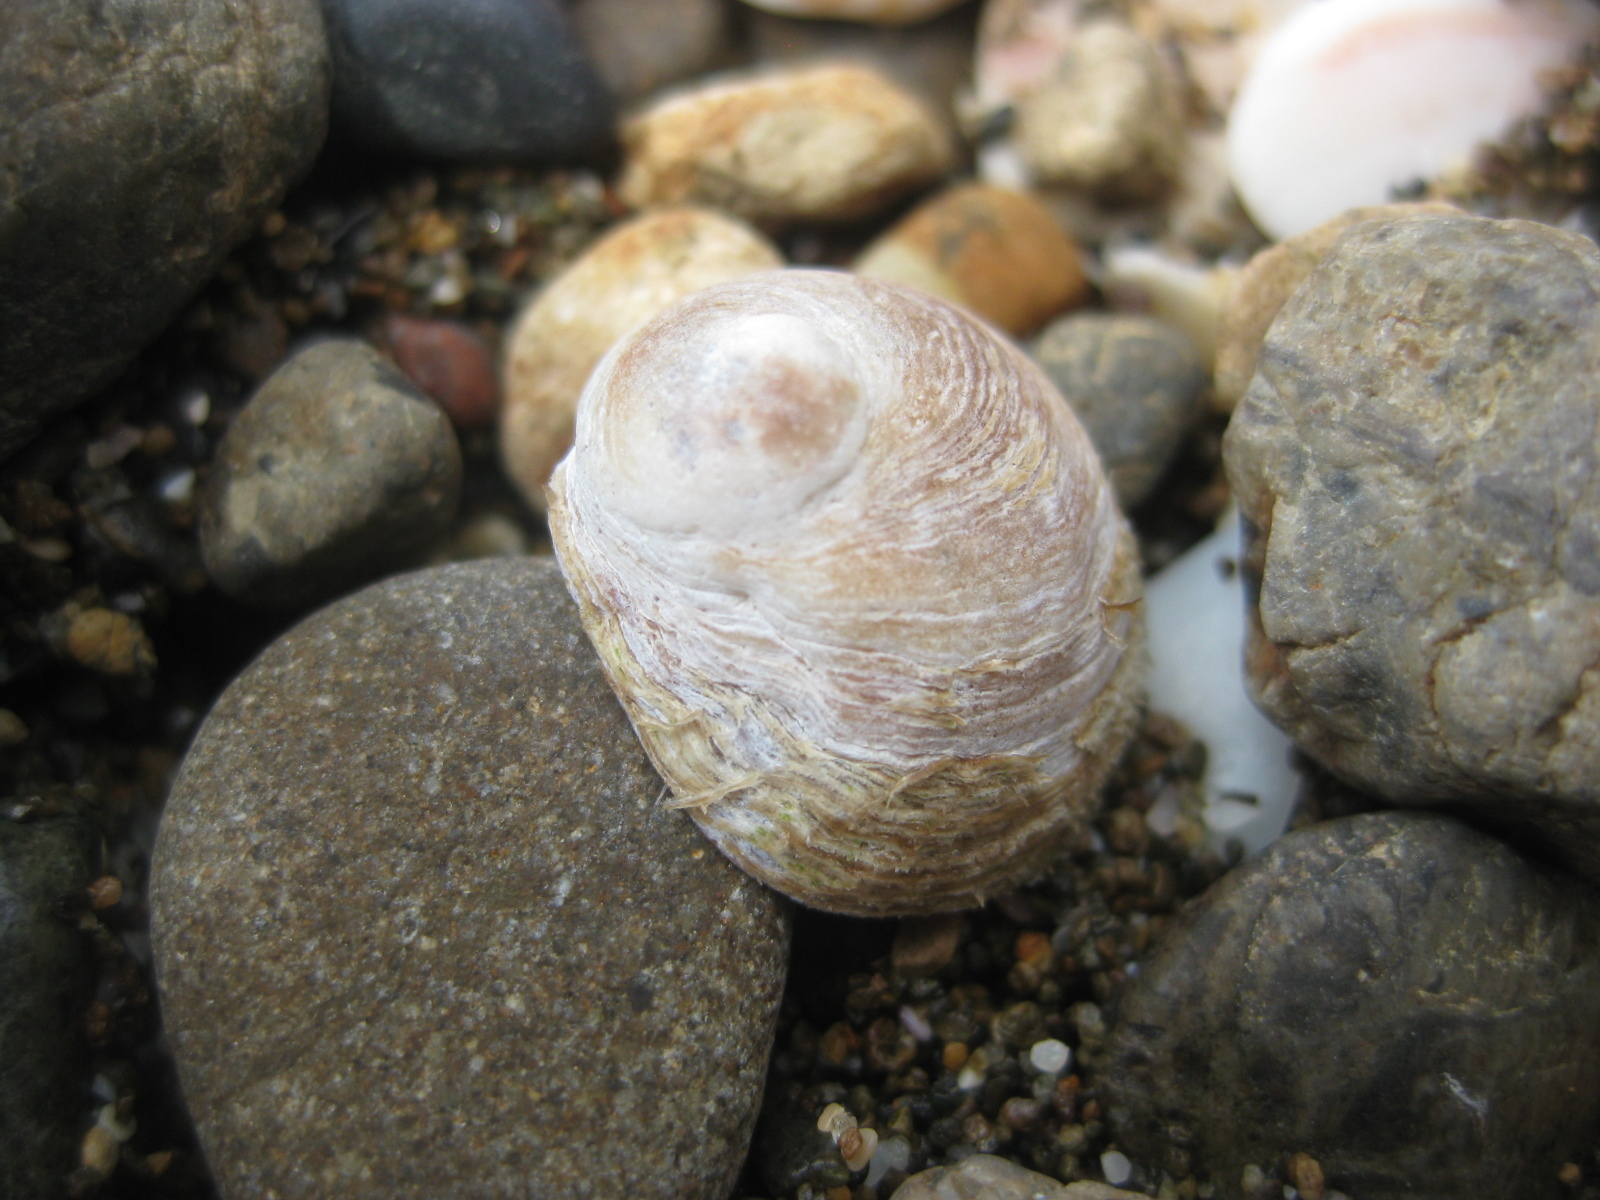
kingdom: Animalia
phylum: Mollusca
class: Gastropoda
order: Littorinimorpha
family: Calyptraeidae
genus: Sigapatella
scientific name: Sigapatella novaezelandiae
